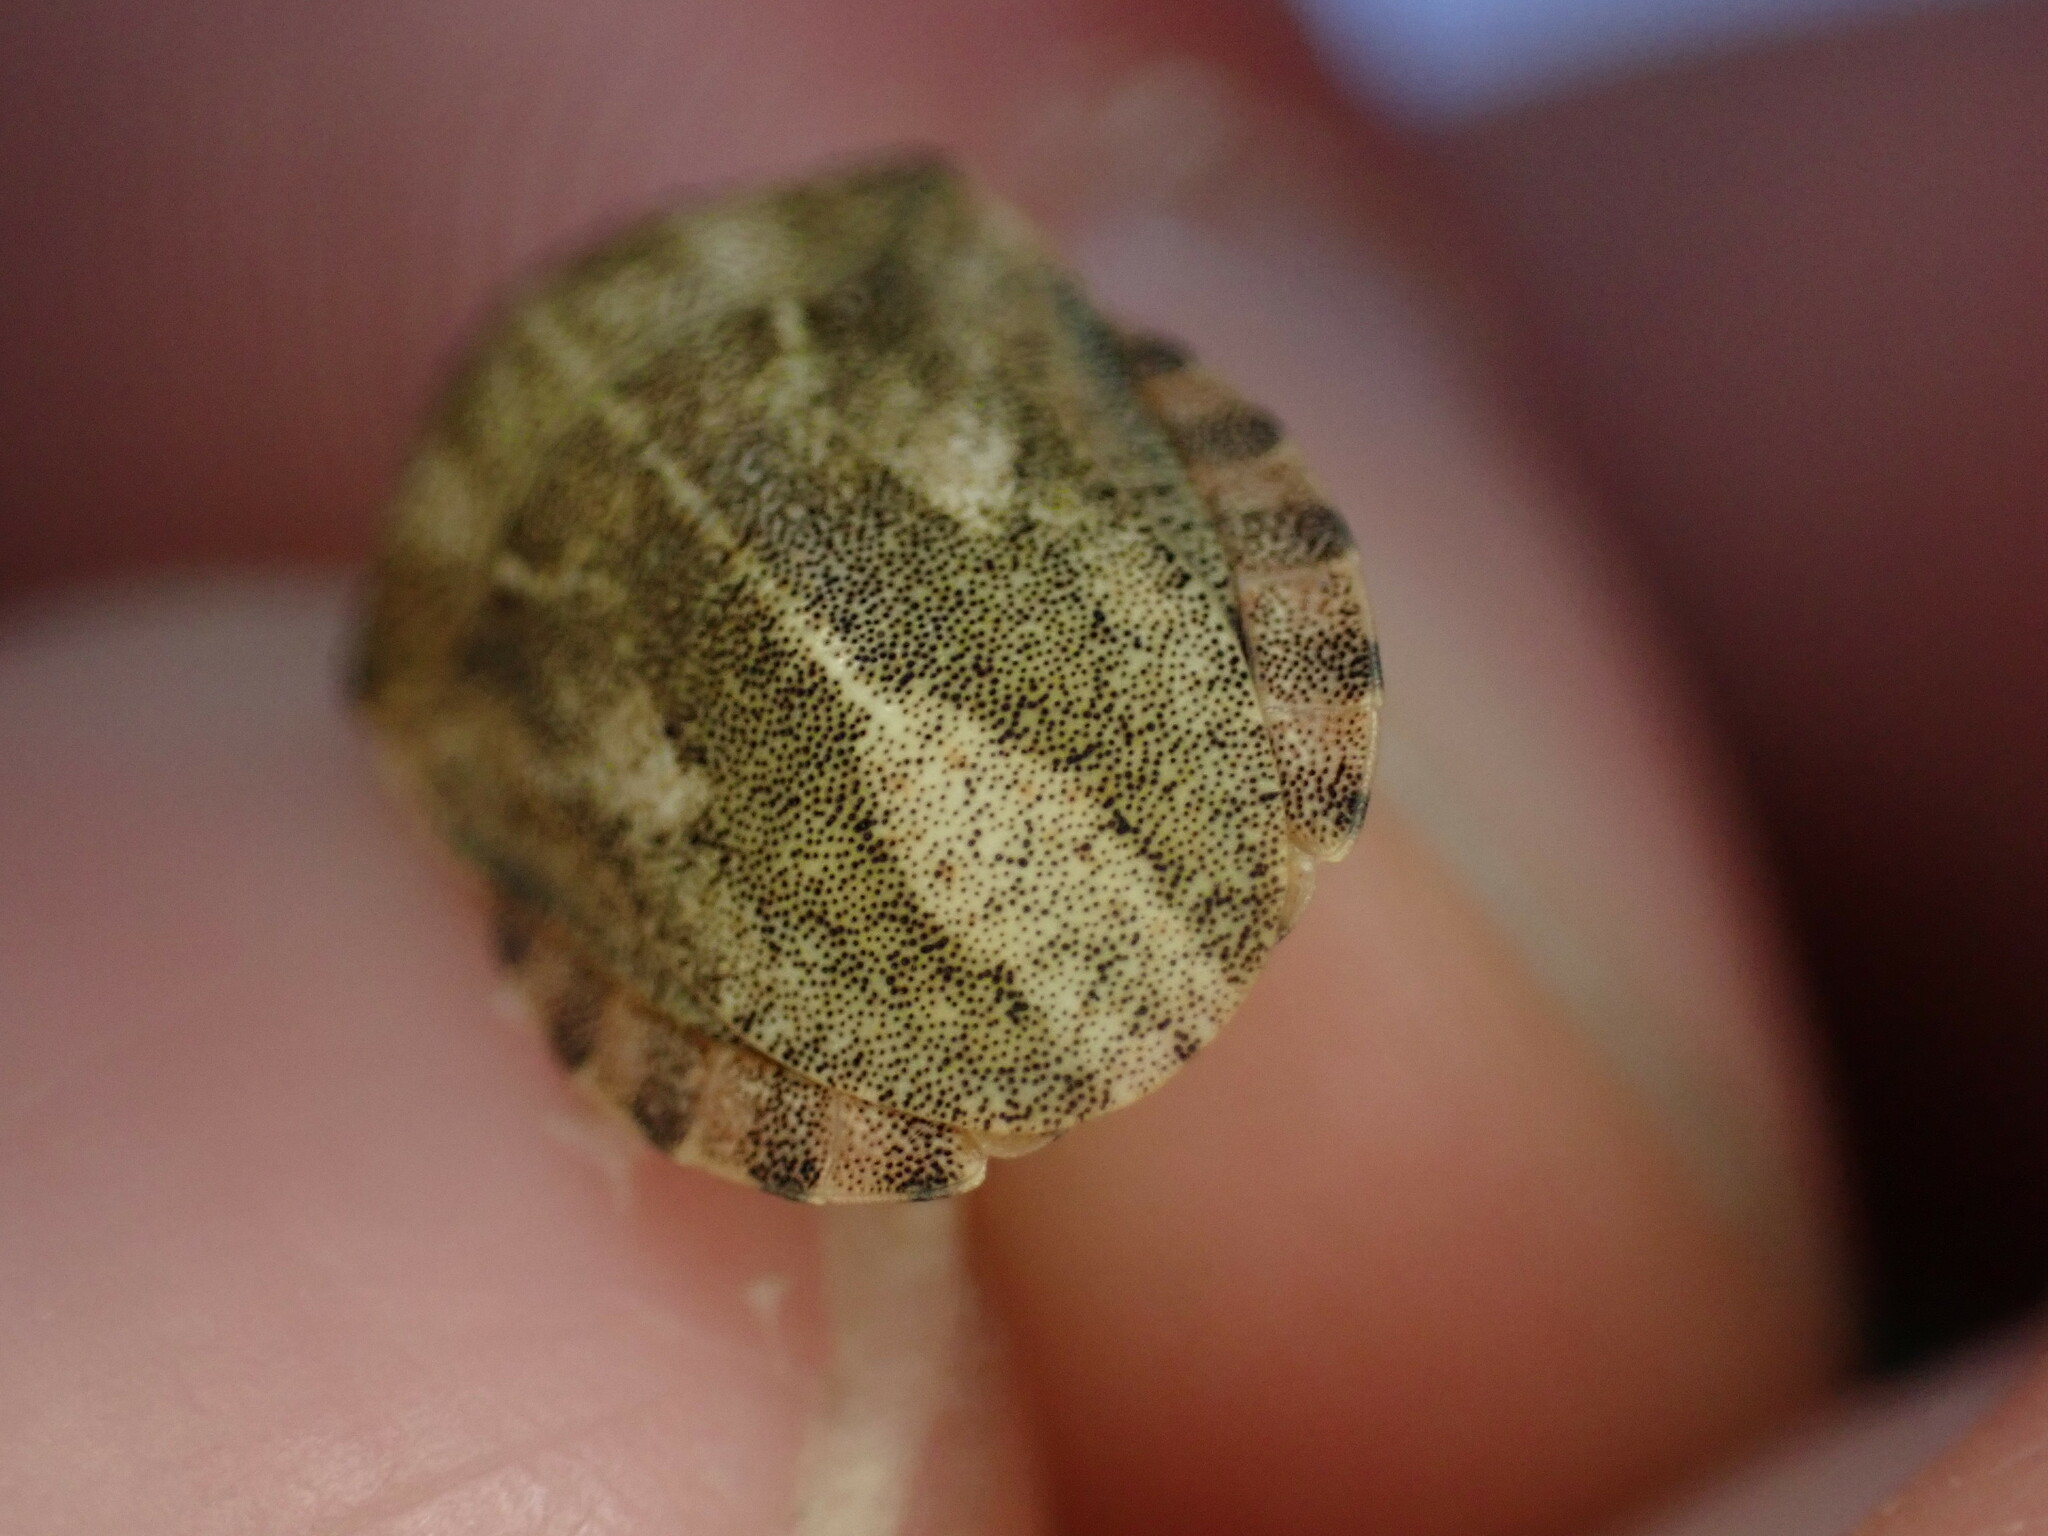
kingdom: Animalia
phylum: Arthropoda
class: Insecta
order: Hemiptera
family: Scutelleridae
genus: Eurygaster
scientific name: Eurygaster testudinaria
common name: Tortoise bug
